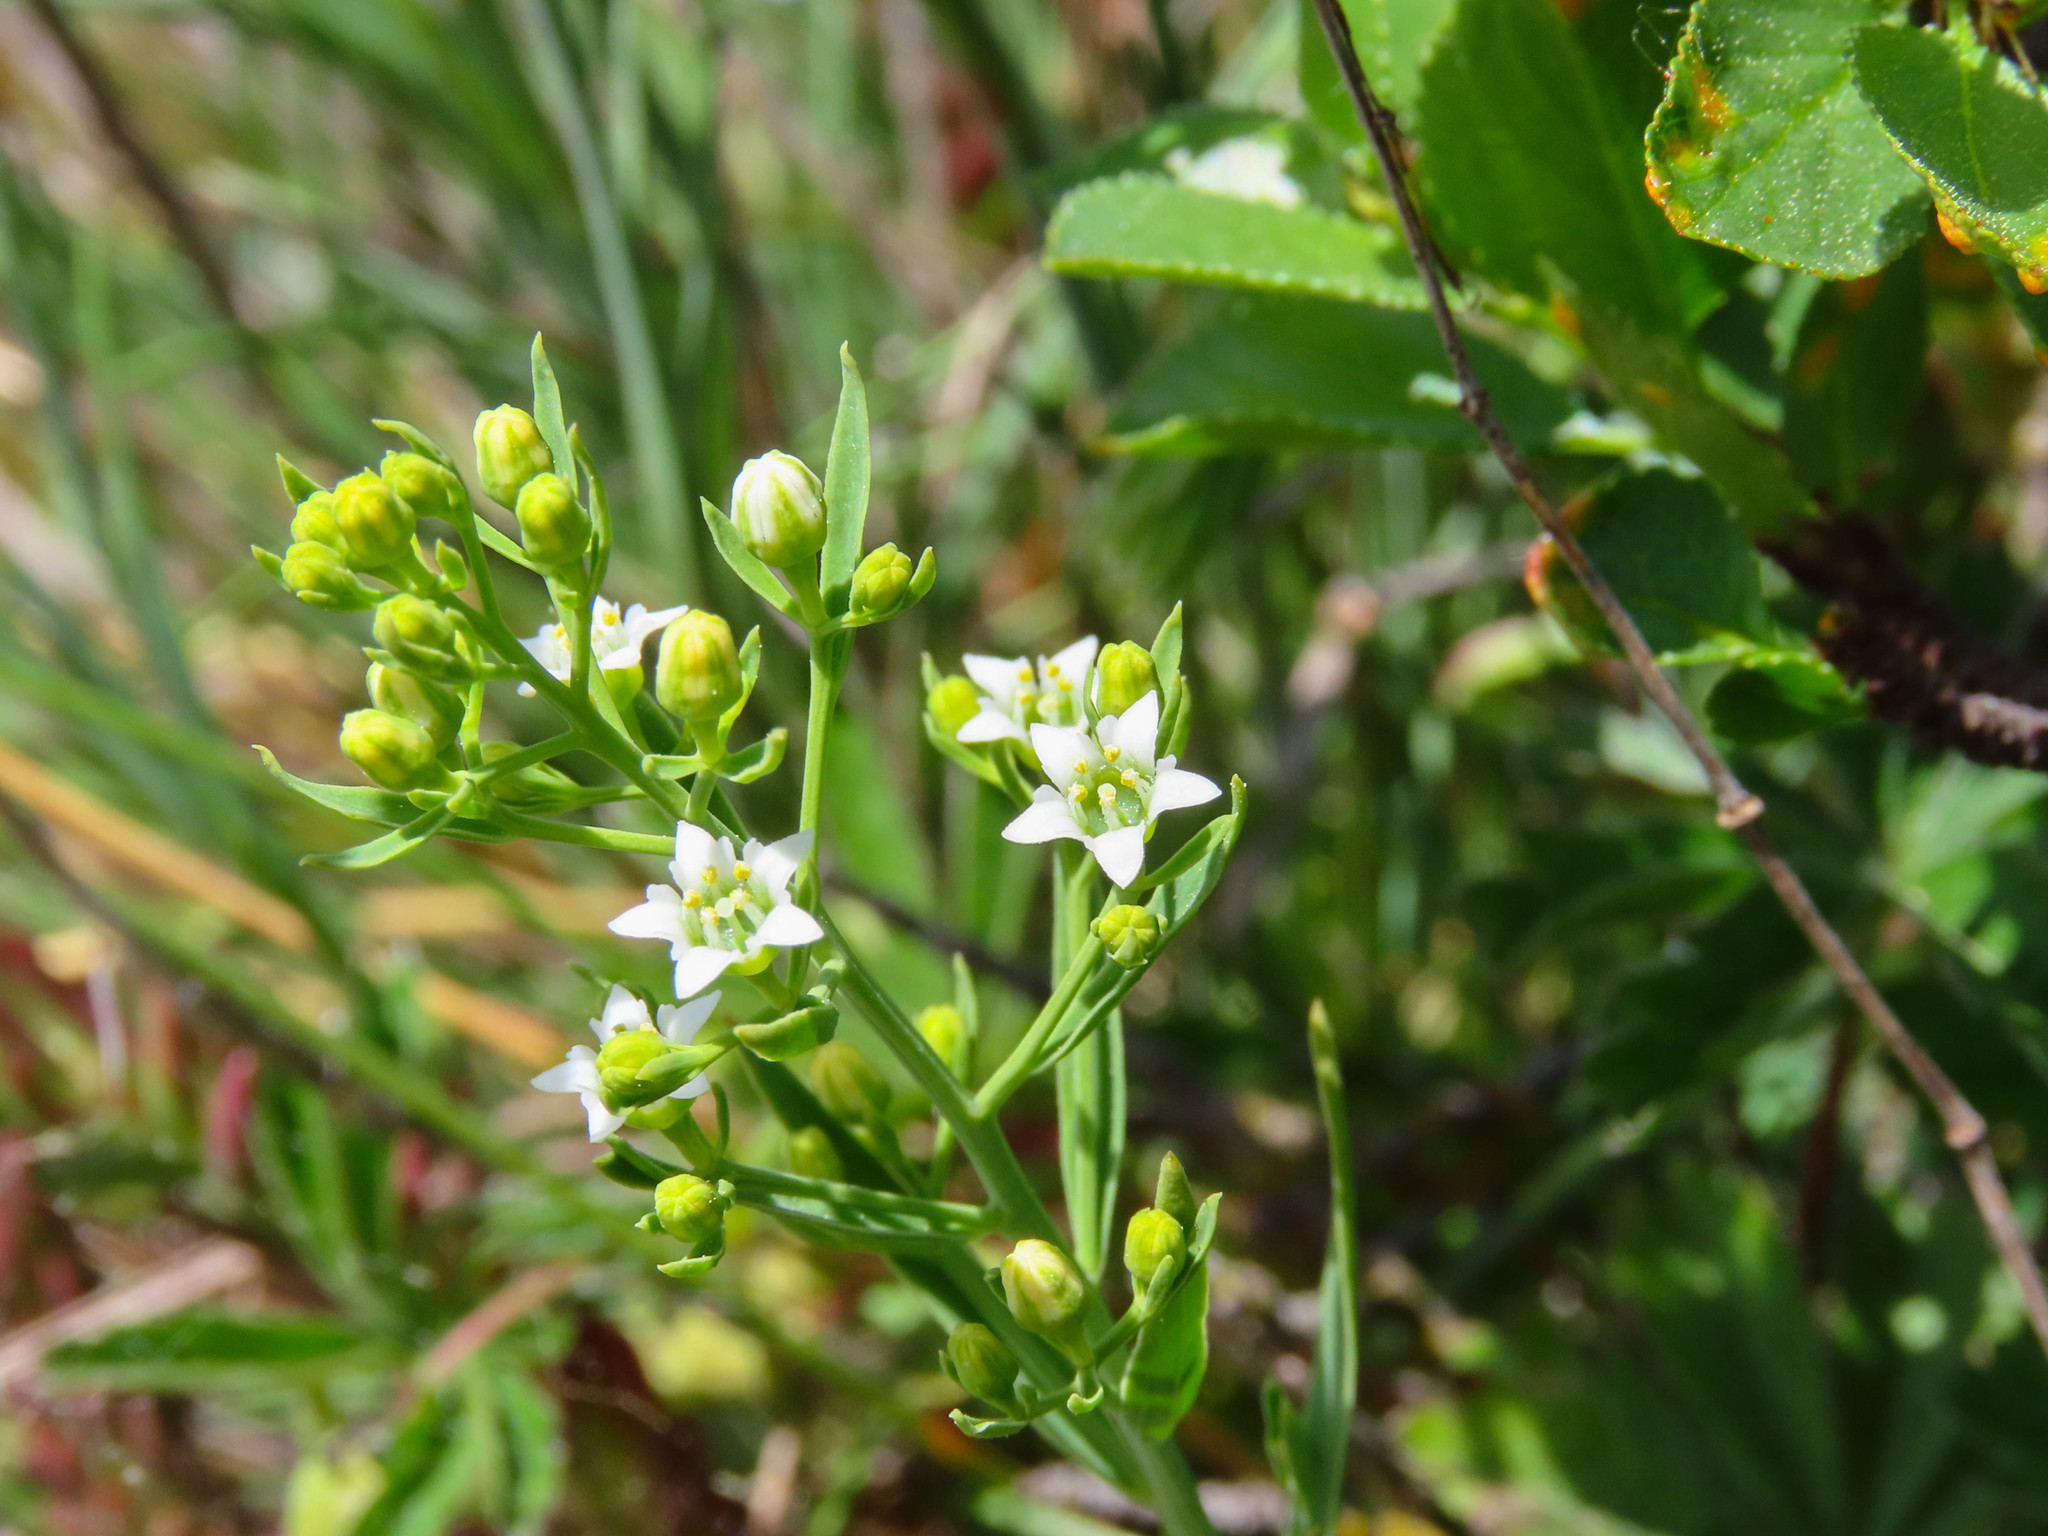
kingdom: Plantae
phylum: Tracheophyta
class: Magnoliopsida
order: Santalales
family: Thesiaceae
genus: Thesium
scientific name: Thesium linophyllon
